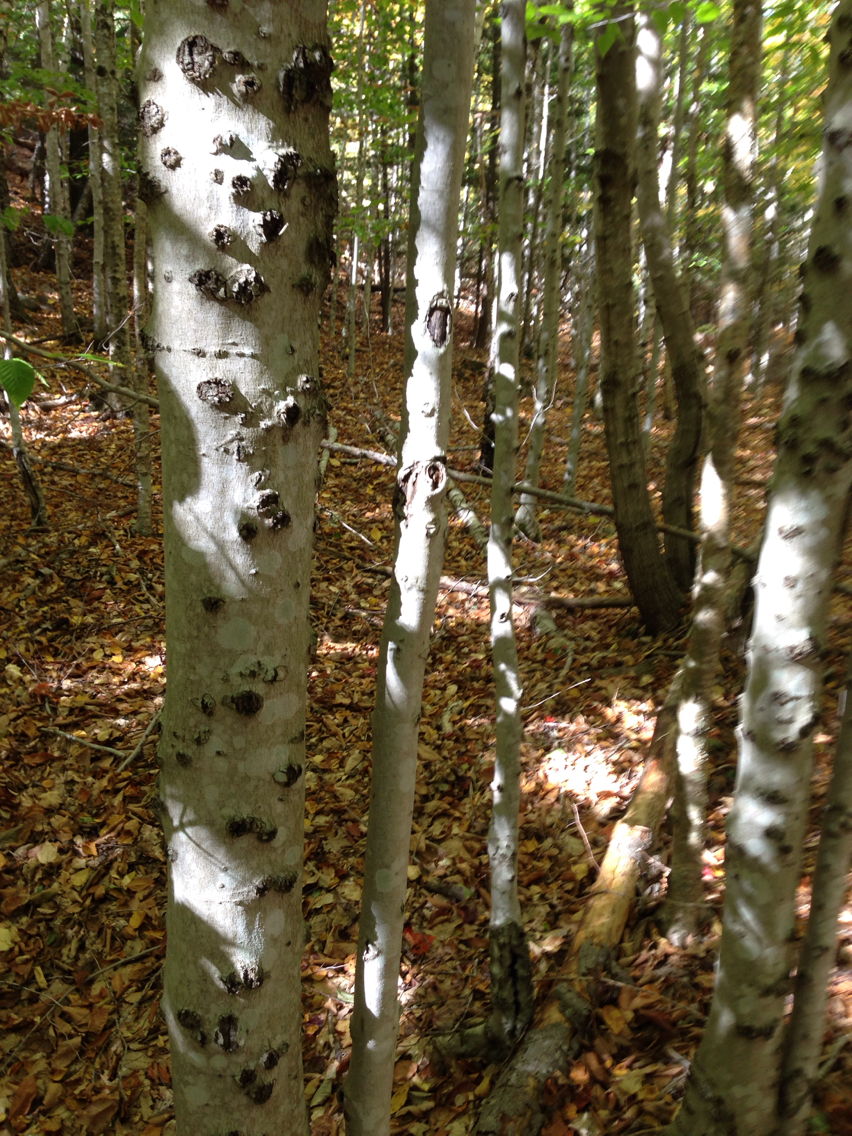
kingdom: Plantae
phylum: Tracheophyta
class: Magnoliopsida
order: Fagales
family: Fagaceae
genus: Fagus
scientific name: Fagus grandifolia
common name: American beech
